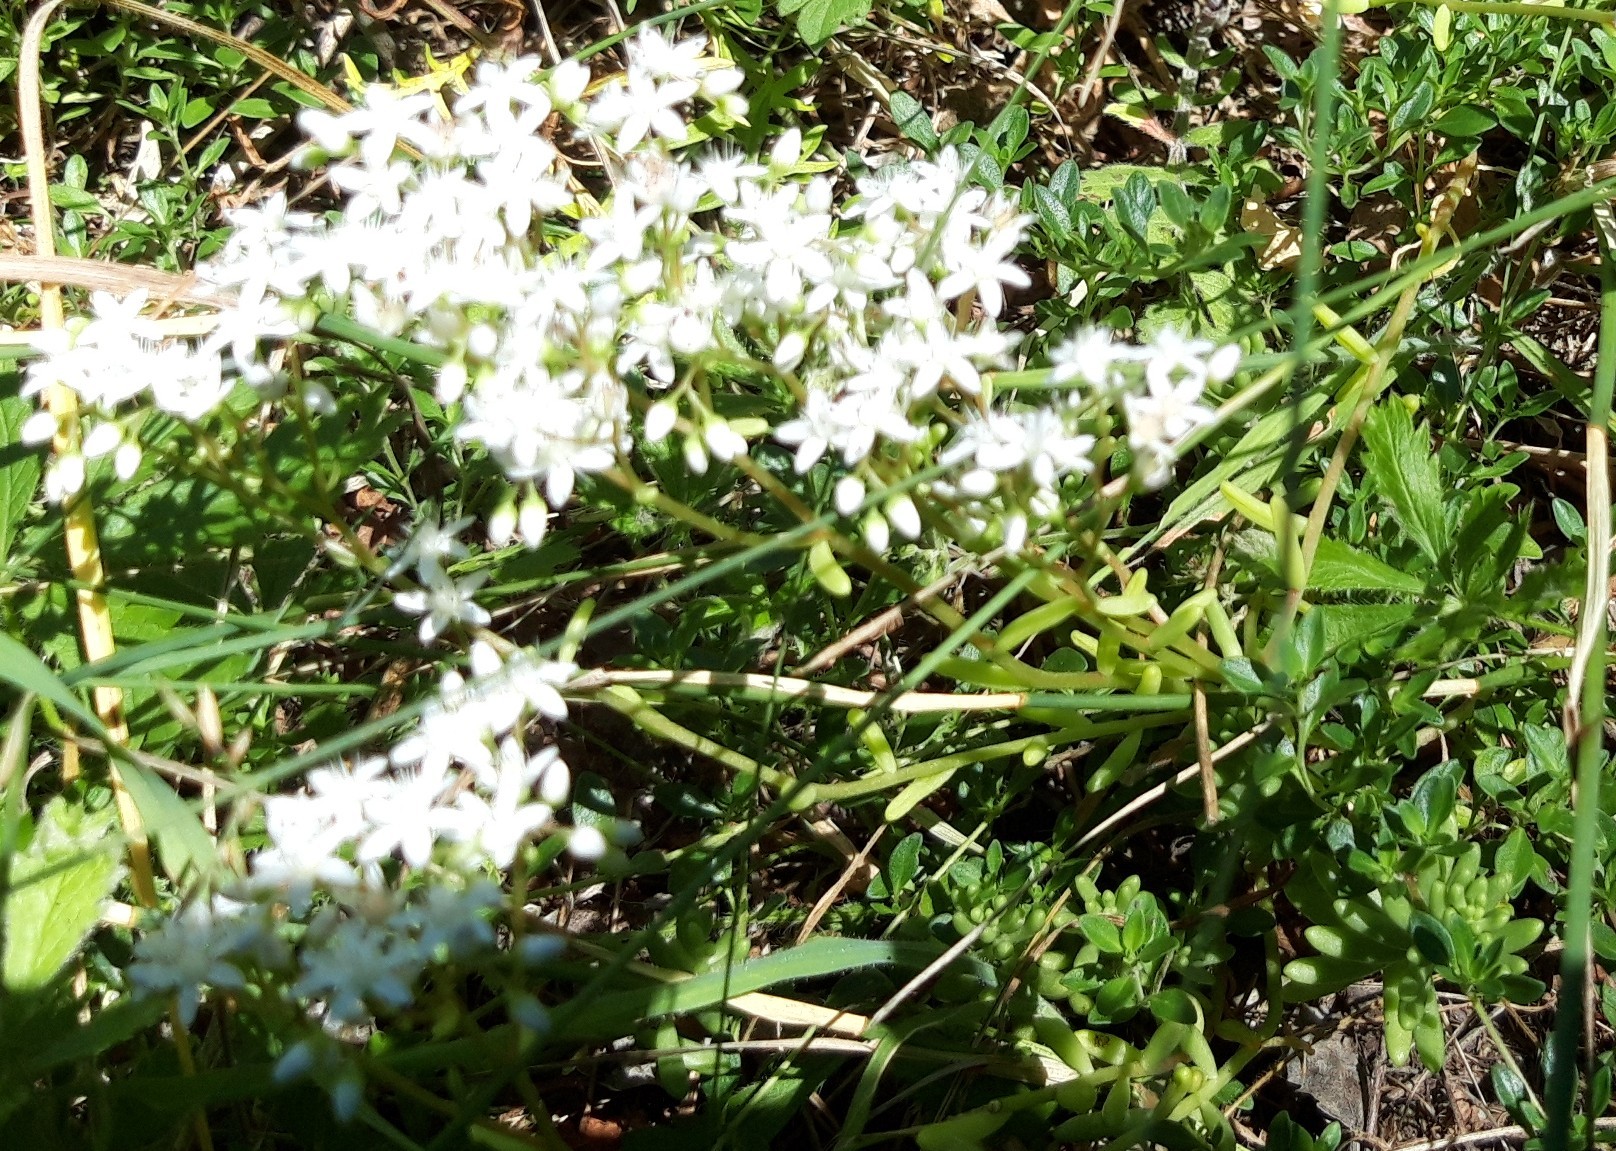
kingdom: Plantae
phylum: Tracheophyta
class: Magnoliopsida
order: Saxifragales
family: Crassulaceae
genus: Sedum
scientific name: Sedum album
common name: White stonecrop
